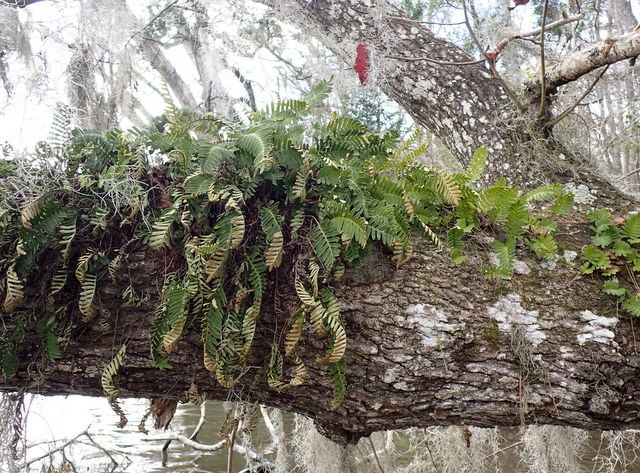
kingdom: Plantae
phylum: Tracheophyta
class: Polypodiopsida
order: Polypodiales
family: Polypodiaceae
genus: Pleopeltis
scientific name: Pleopeltis michauxiana
